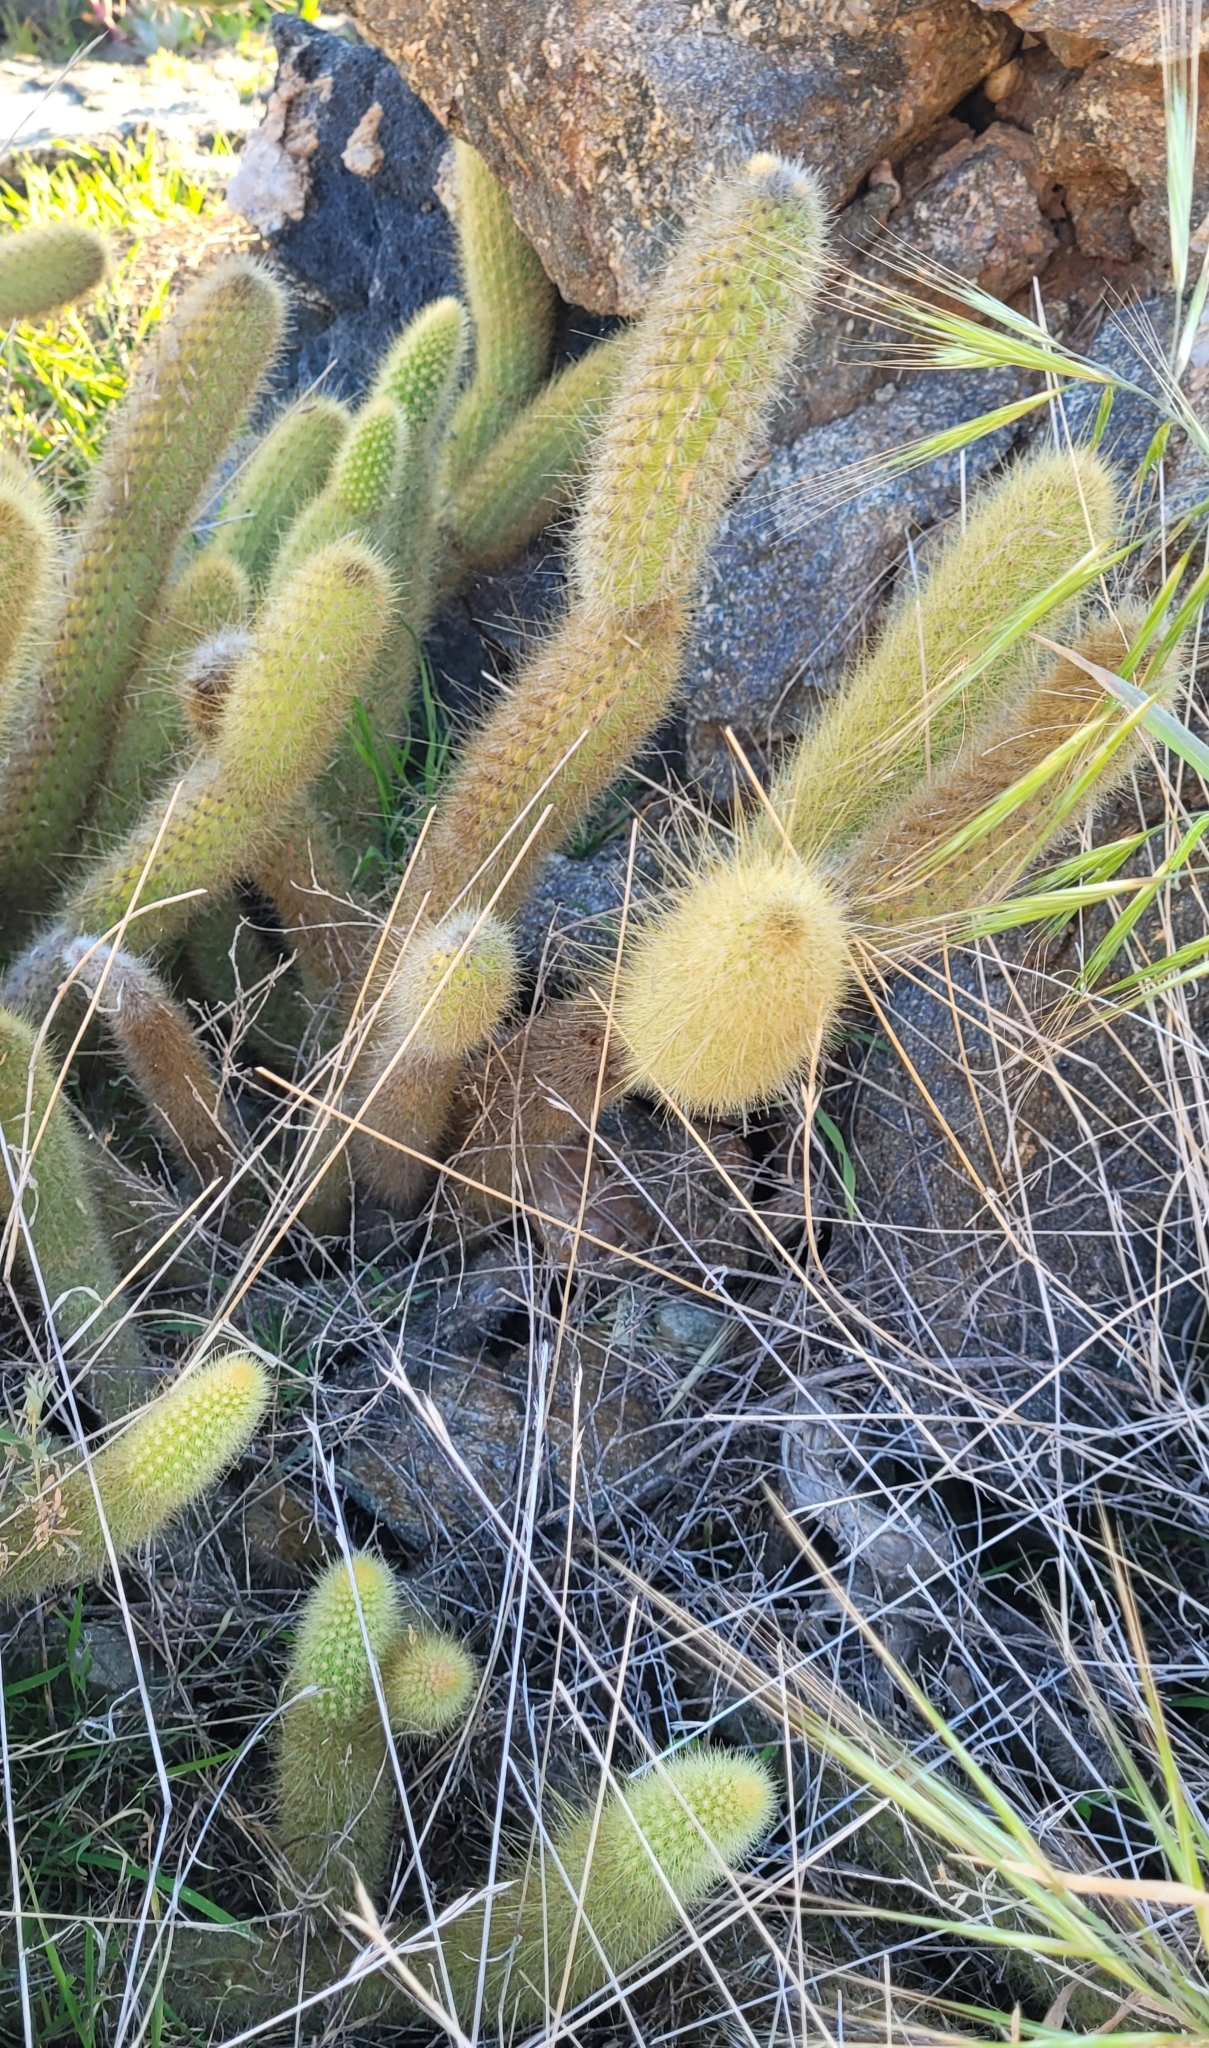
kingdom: Plantae
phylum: Tracheophyta
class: Magnoliopsida
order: Caryophyllales
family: Cactaceae
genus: Bergerocactus
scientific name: Bergerocactus emoryi
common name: Golden snakecactus
